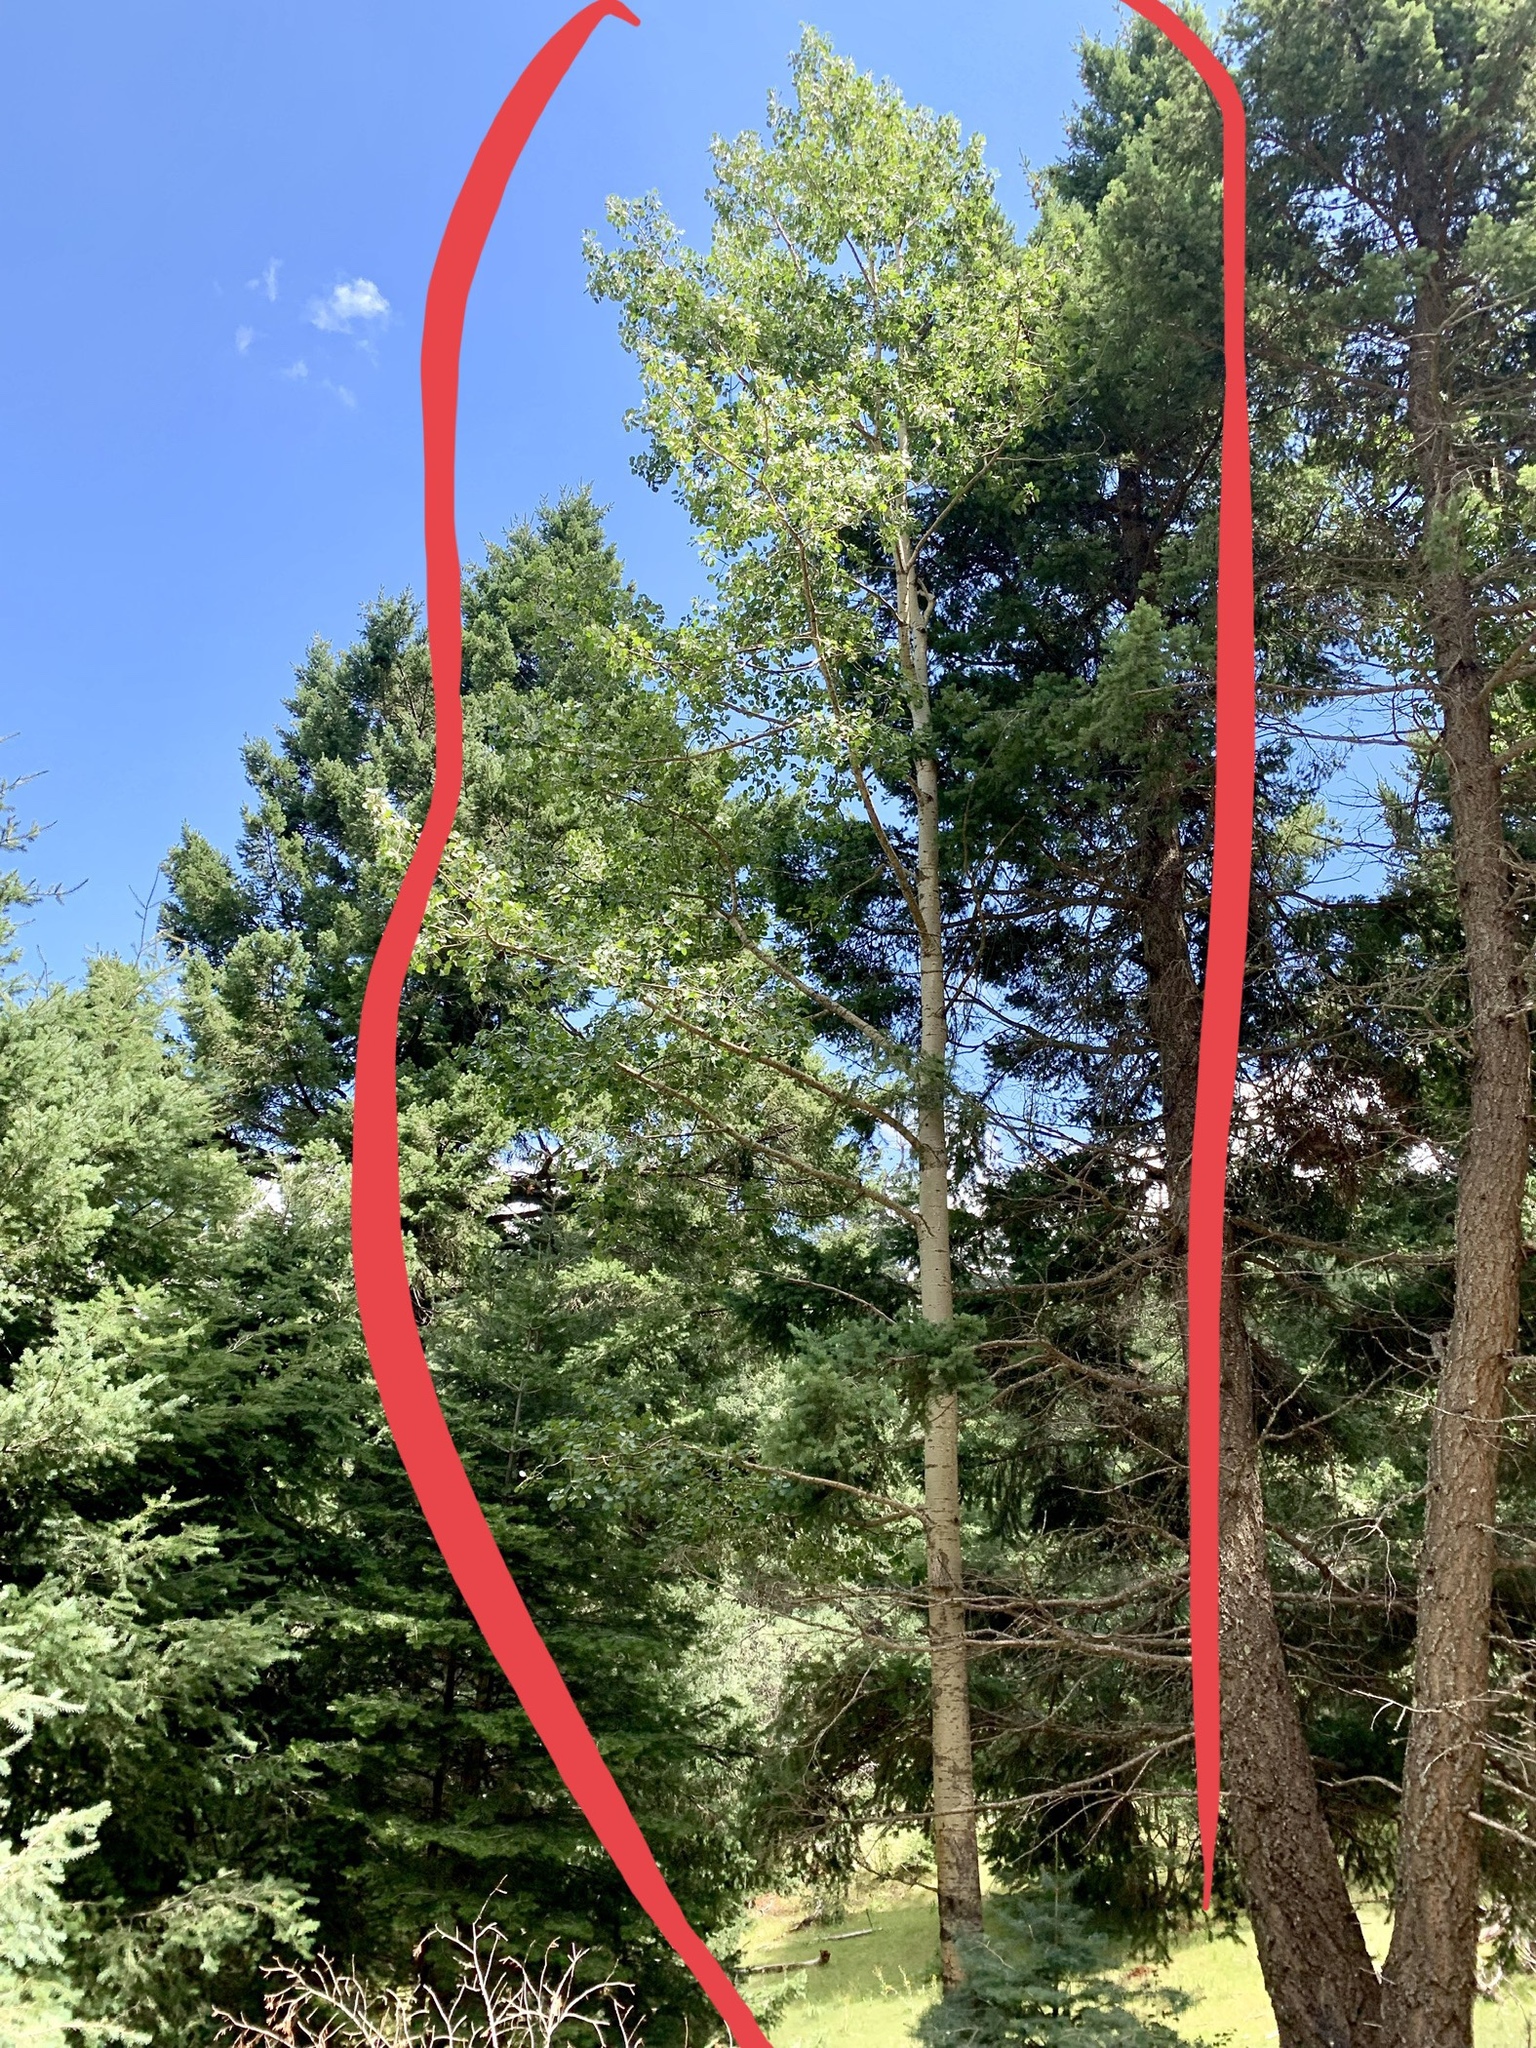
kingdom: Plantae
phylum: Tracheophyta
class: Magnoliopsida
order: Malpighiales
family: Salicaceae
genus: Populus
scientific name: Populus tremuloides
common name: Quaking aspen
